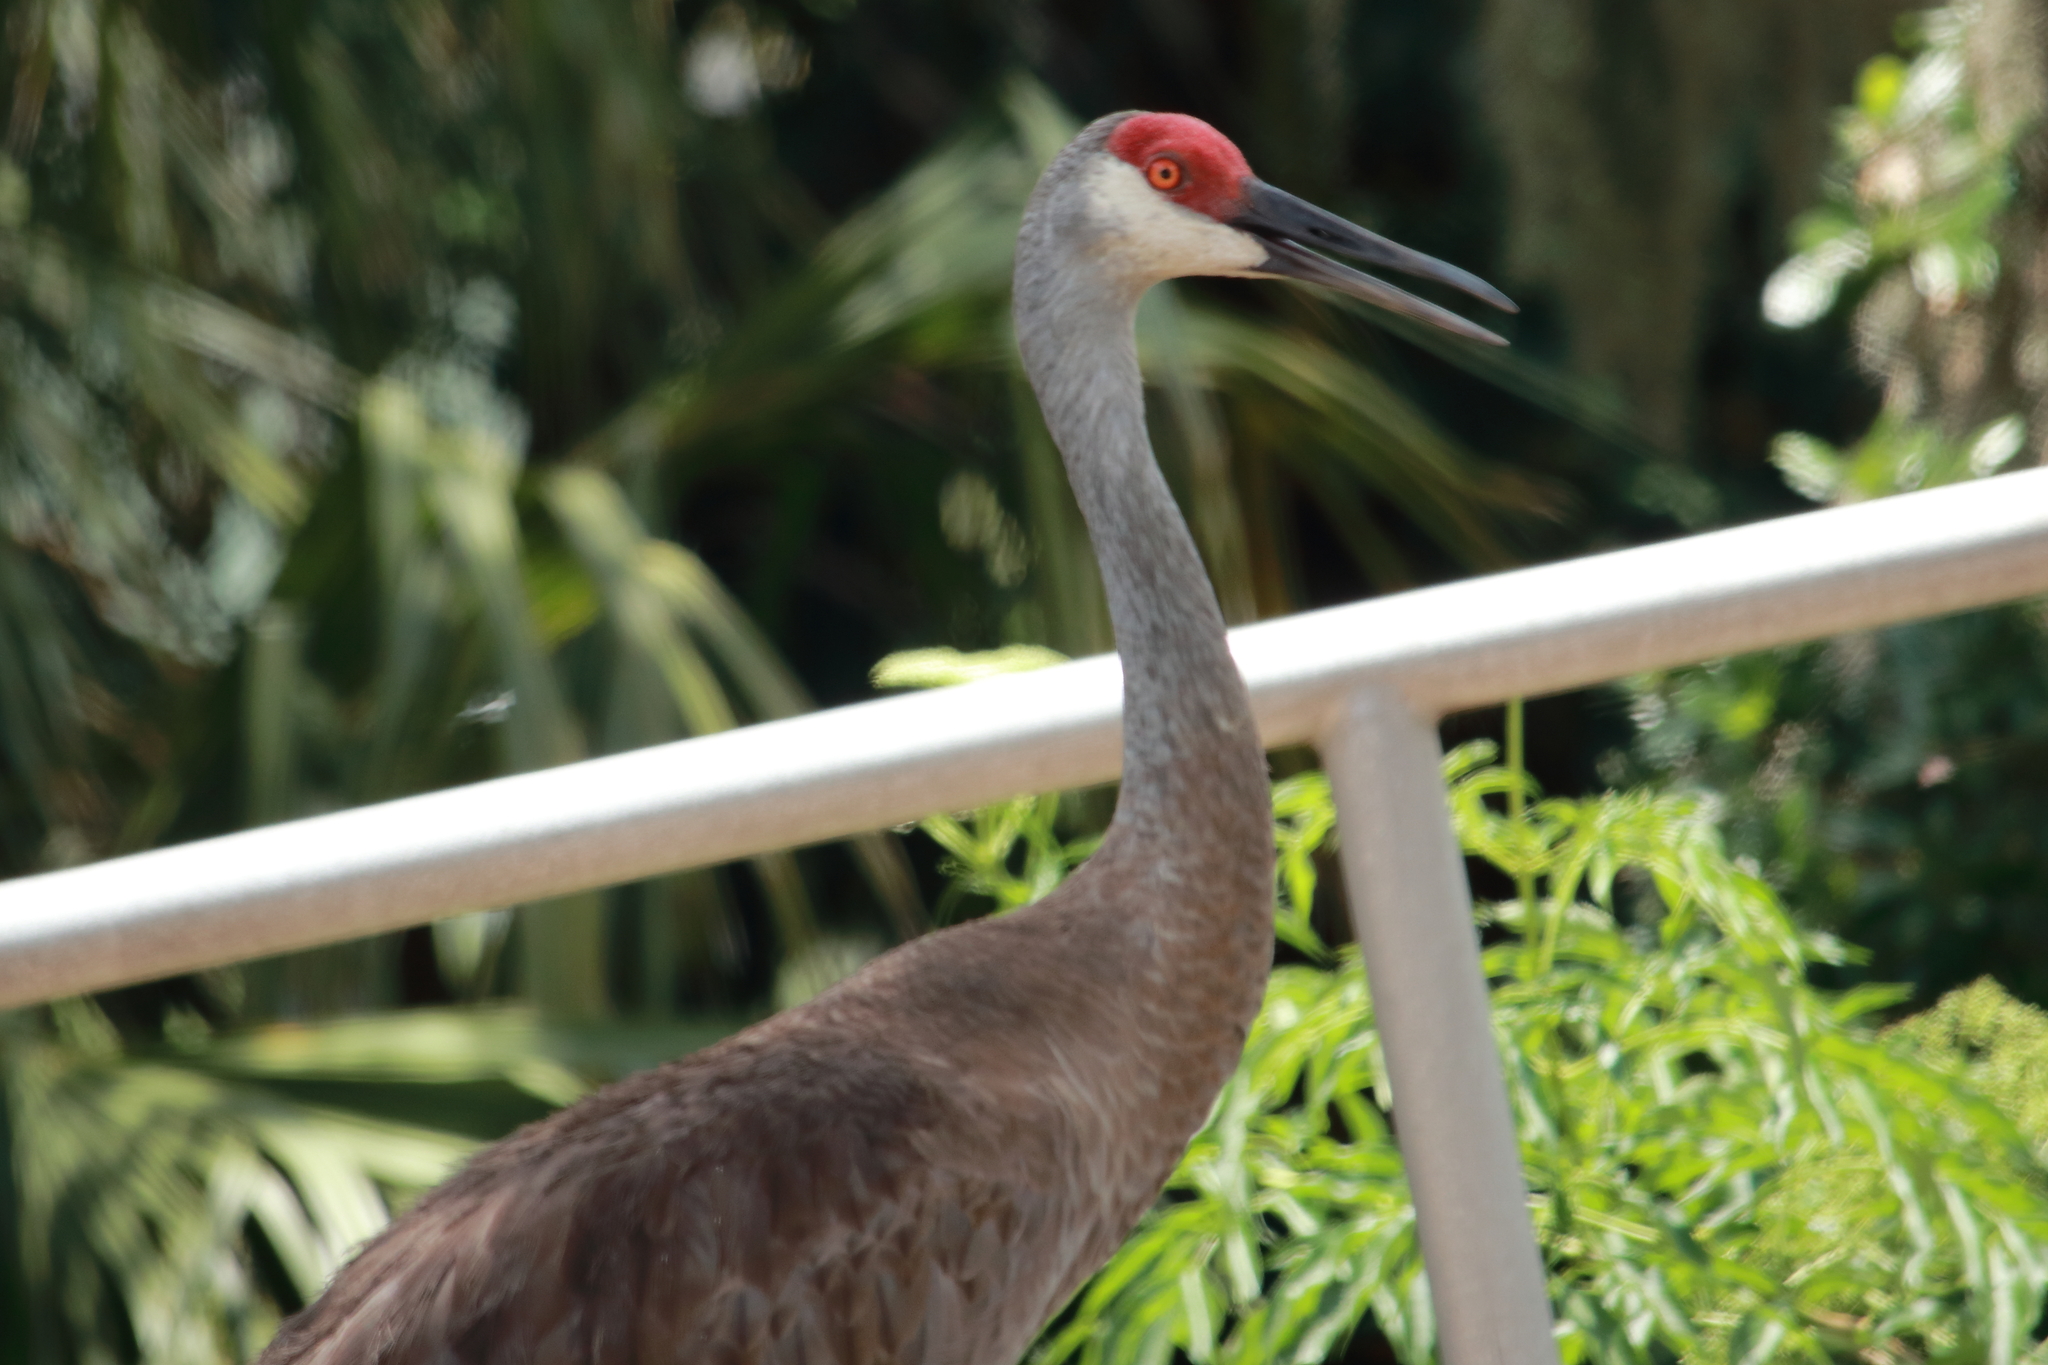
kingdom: Animalia
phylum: Chordata
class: Aves
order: Gruiformes
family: Gruidae
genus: Grus
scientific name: Grus canadensis
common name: Sandhill crane
